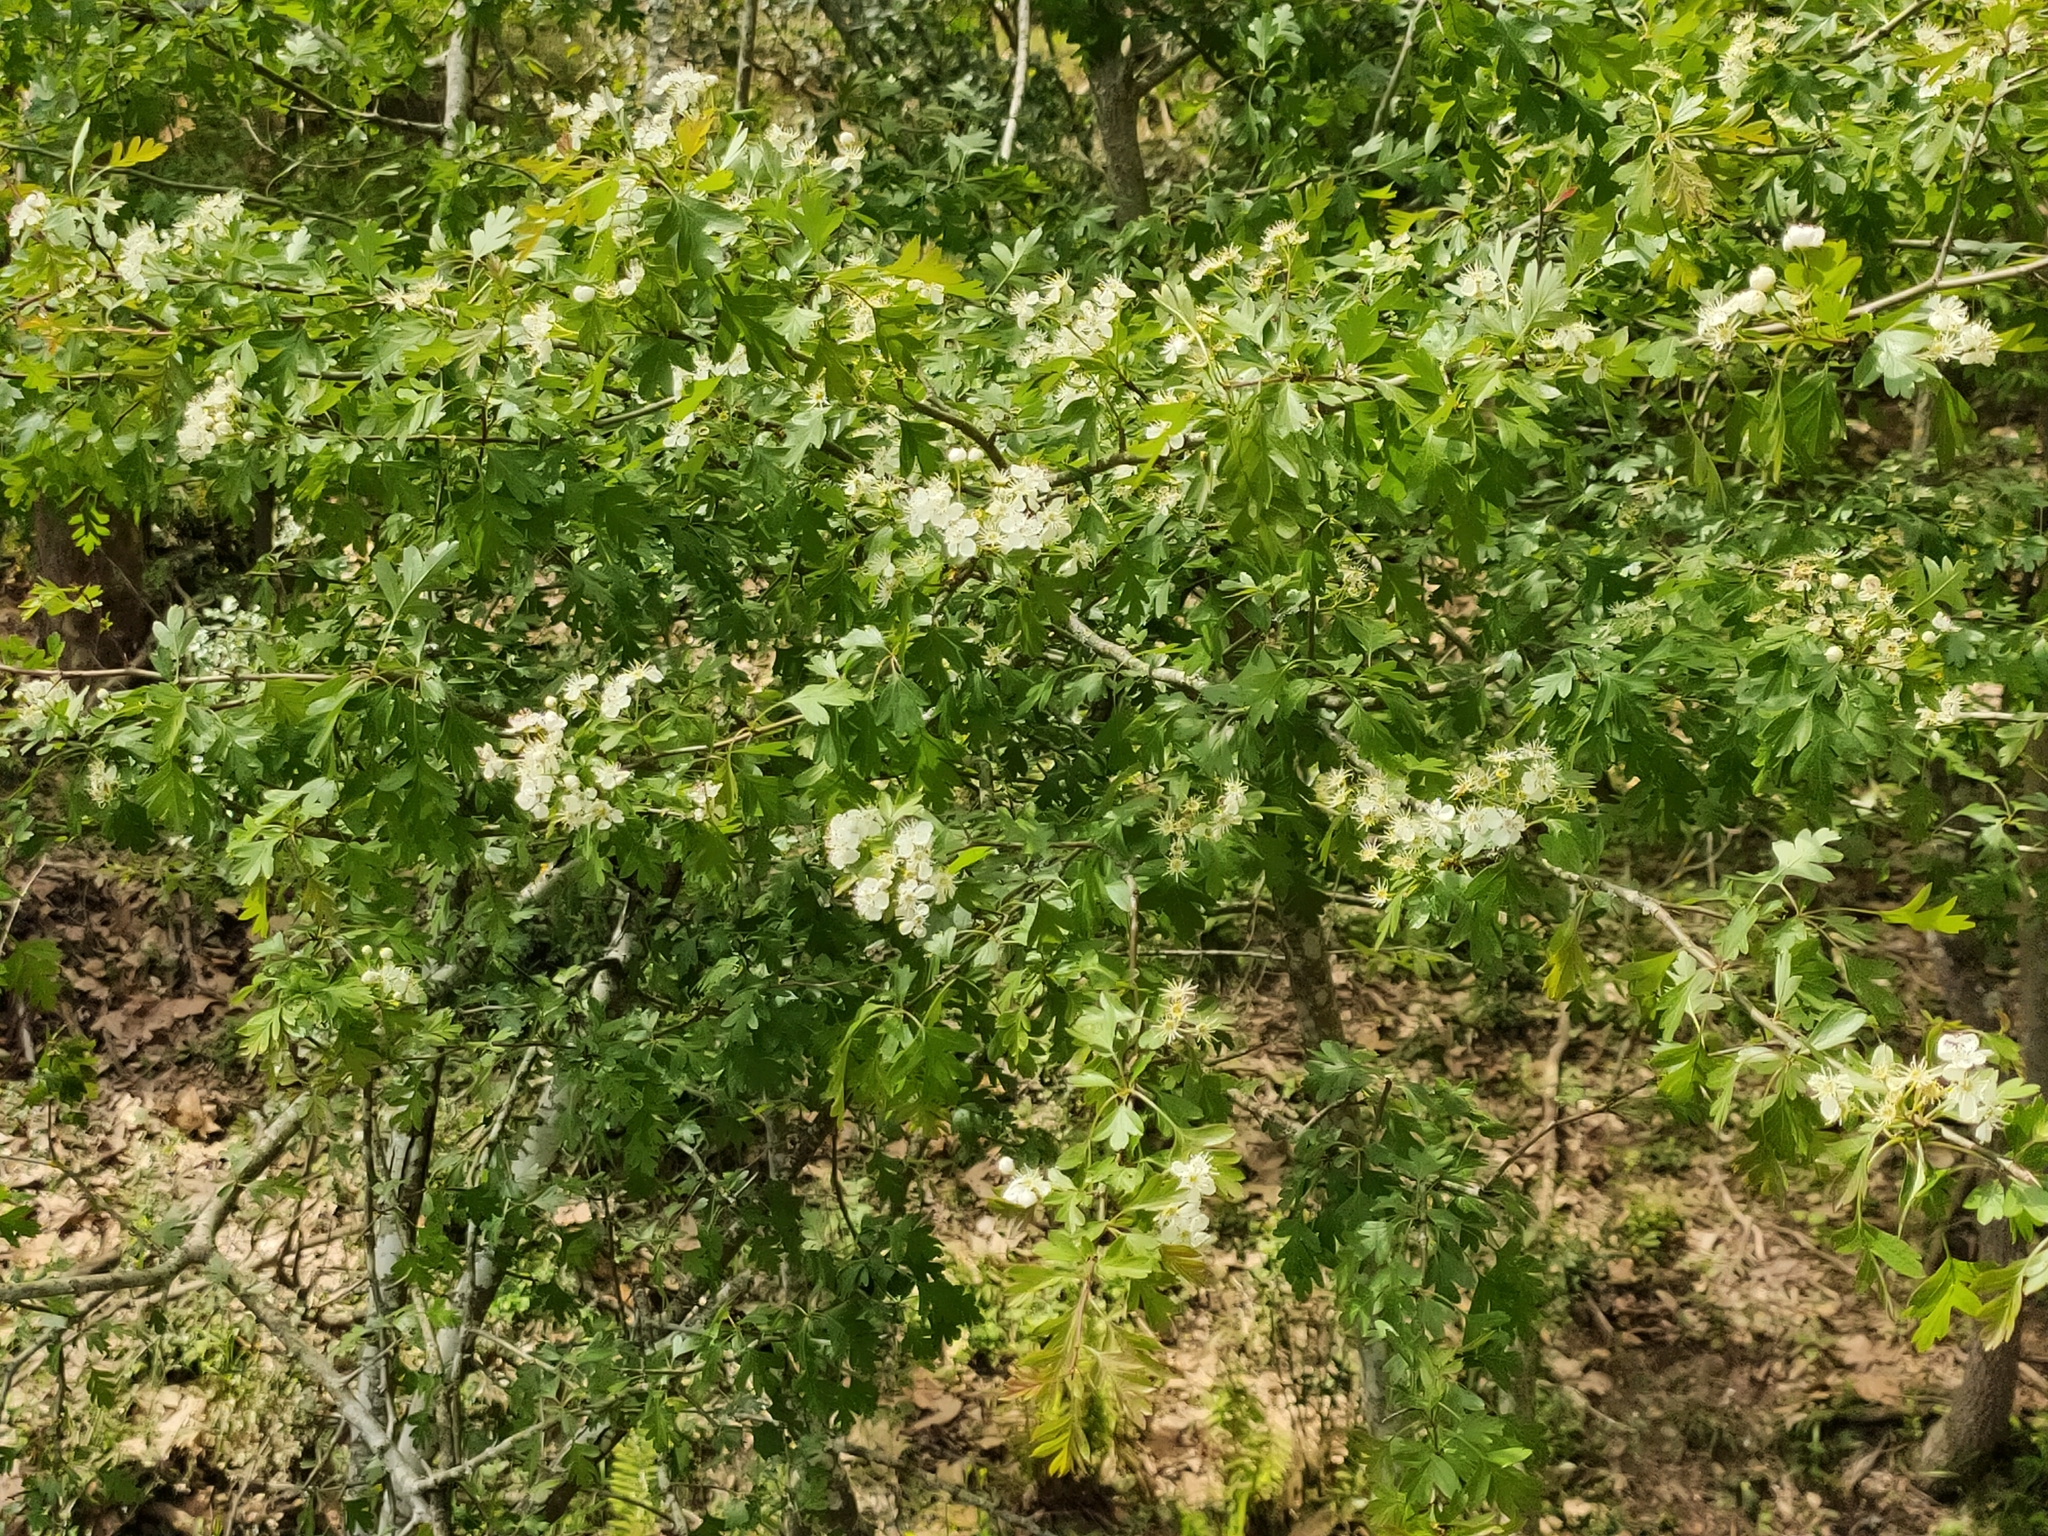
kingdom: Plantae
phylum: Tracheophyta
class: Magnoliopsida
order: Rosales
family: Rosaceae
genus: Crataegus
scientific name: Crataegus monogyna
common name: Hawthorn
